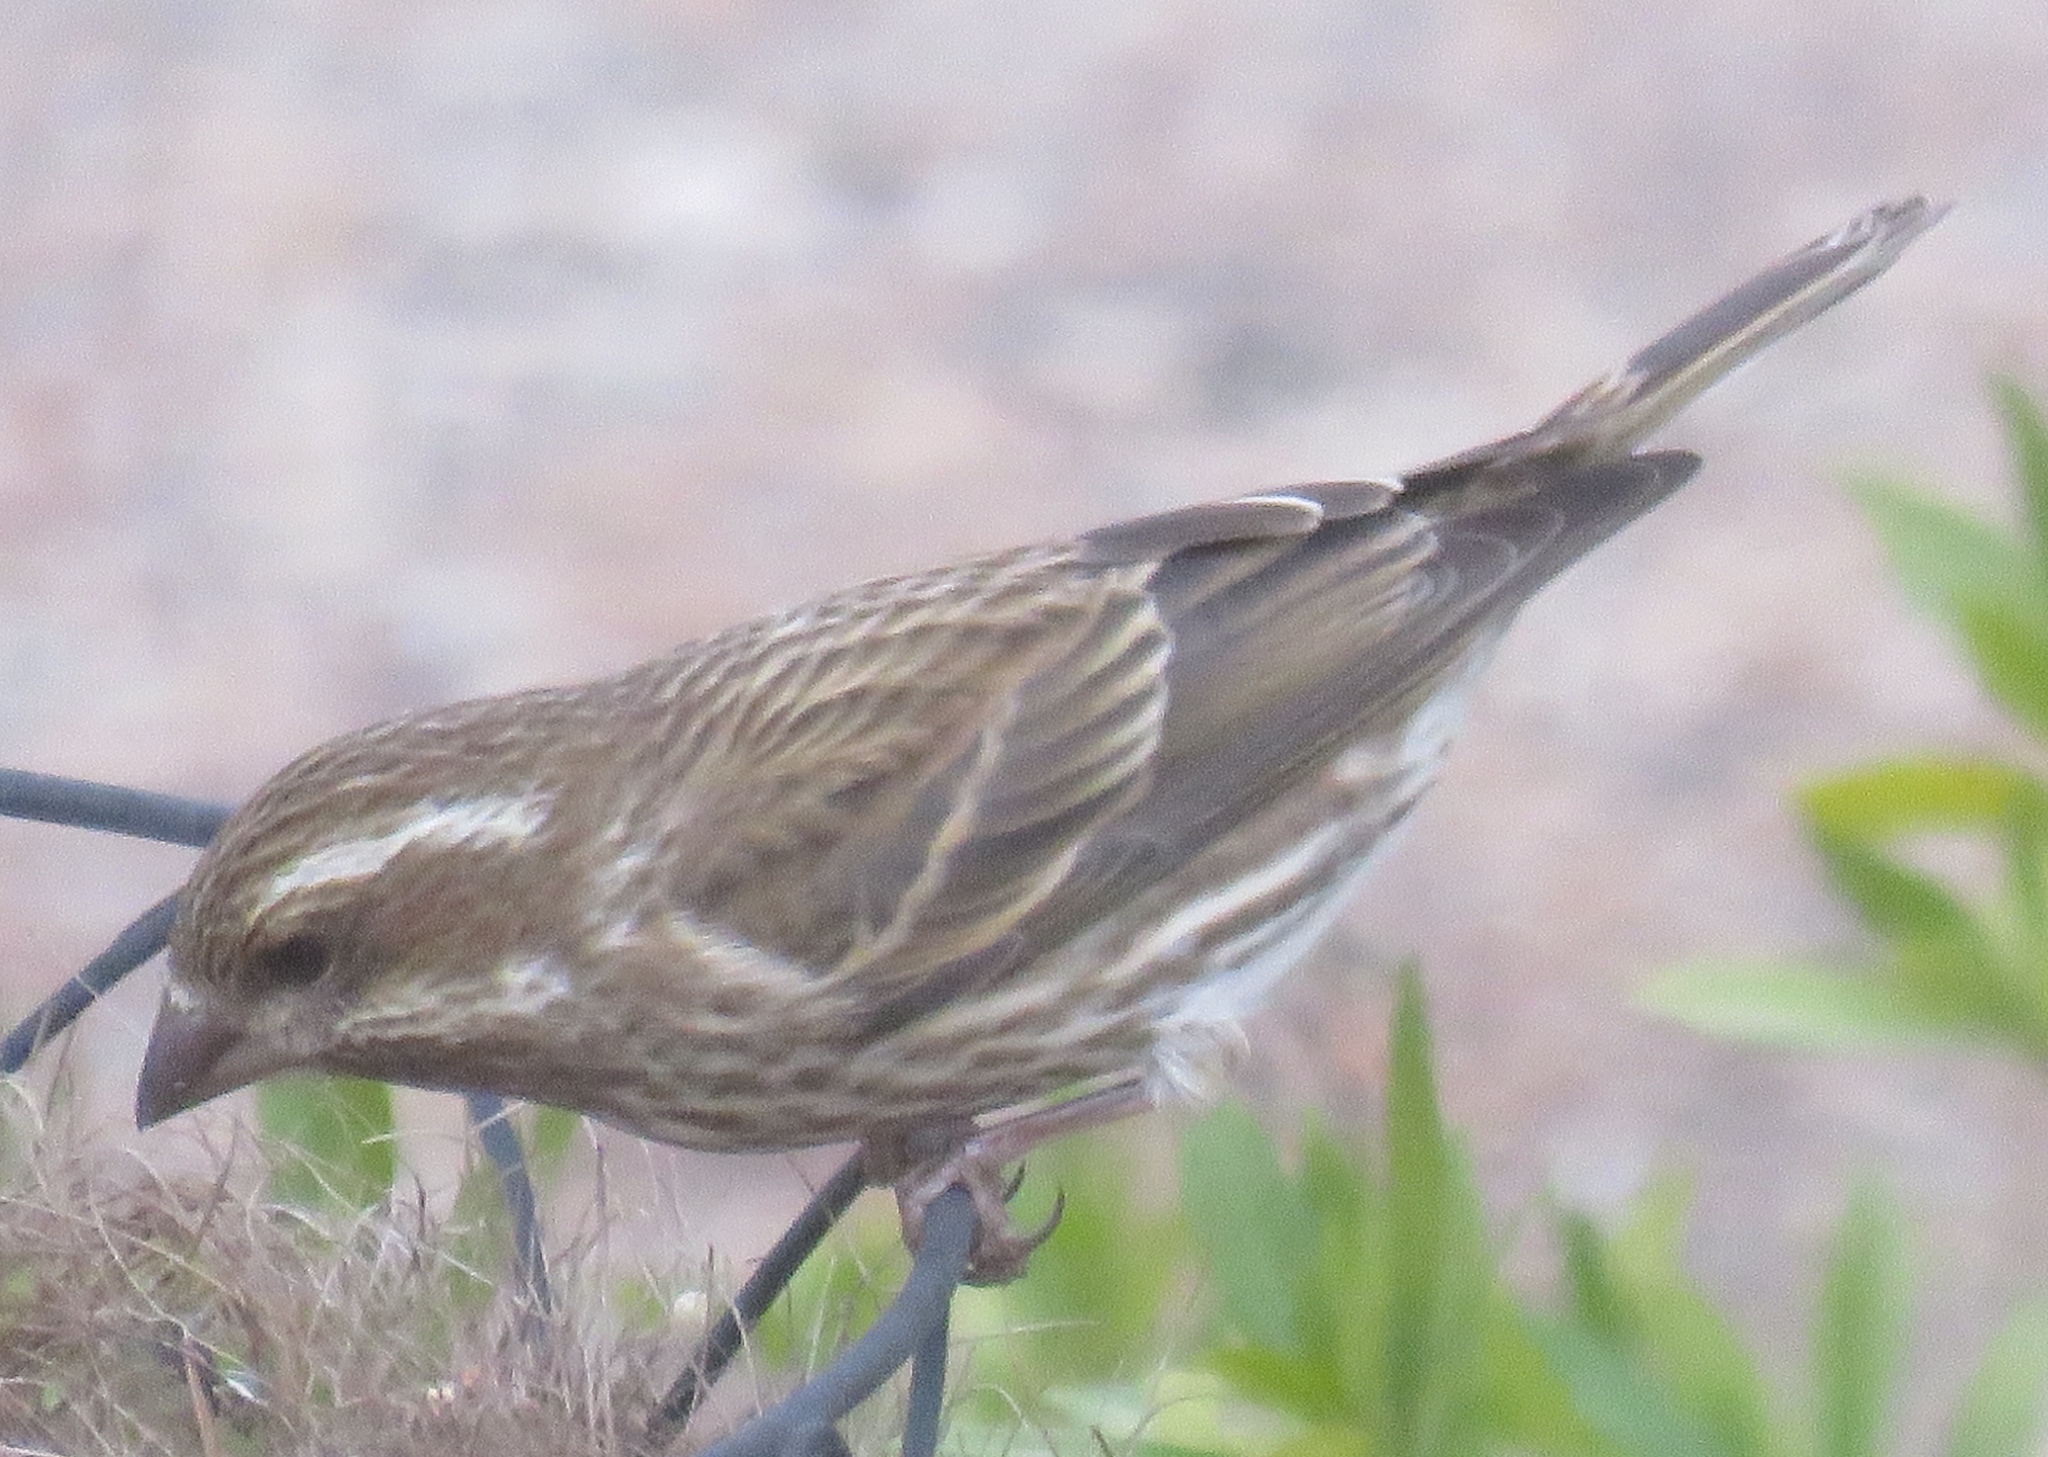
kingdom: Animalia
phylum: Chordata
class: Aves
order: Passeriformes
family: Fringillidae
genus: Haemorhous
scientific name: Haemorhous purpureus
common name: Purple finch
